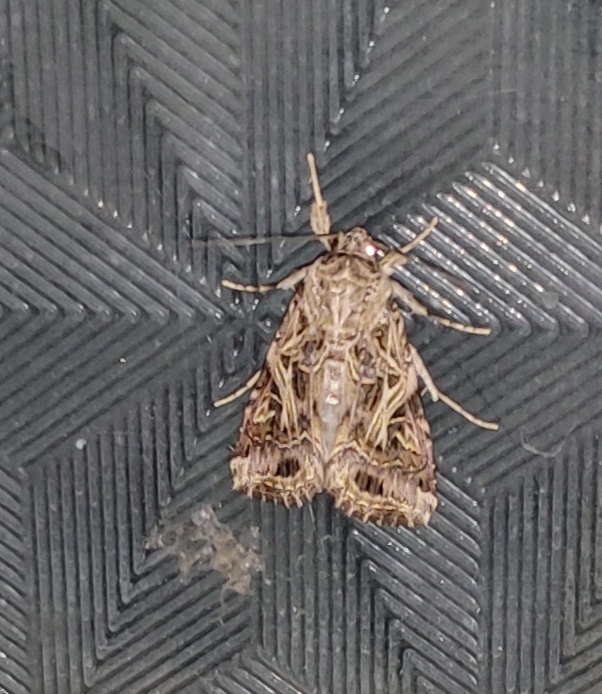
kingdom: Animalia
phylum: Arthropoda
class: Insecta
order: Lepidoptera
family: Noctuidae
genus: Spodoptera
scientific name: Spodoptera litura
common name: Asian cotton leafworm
